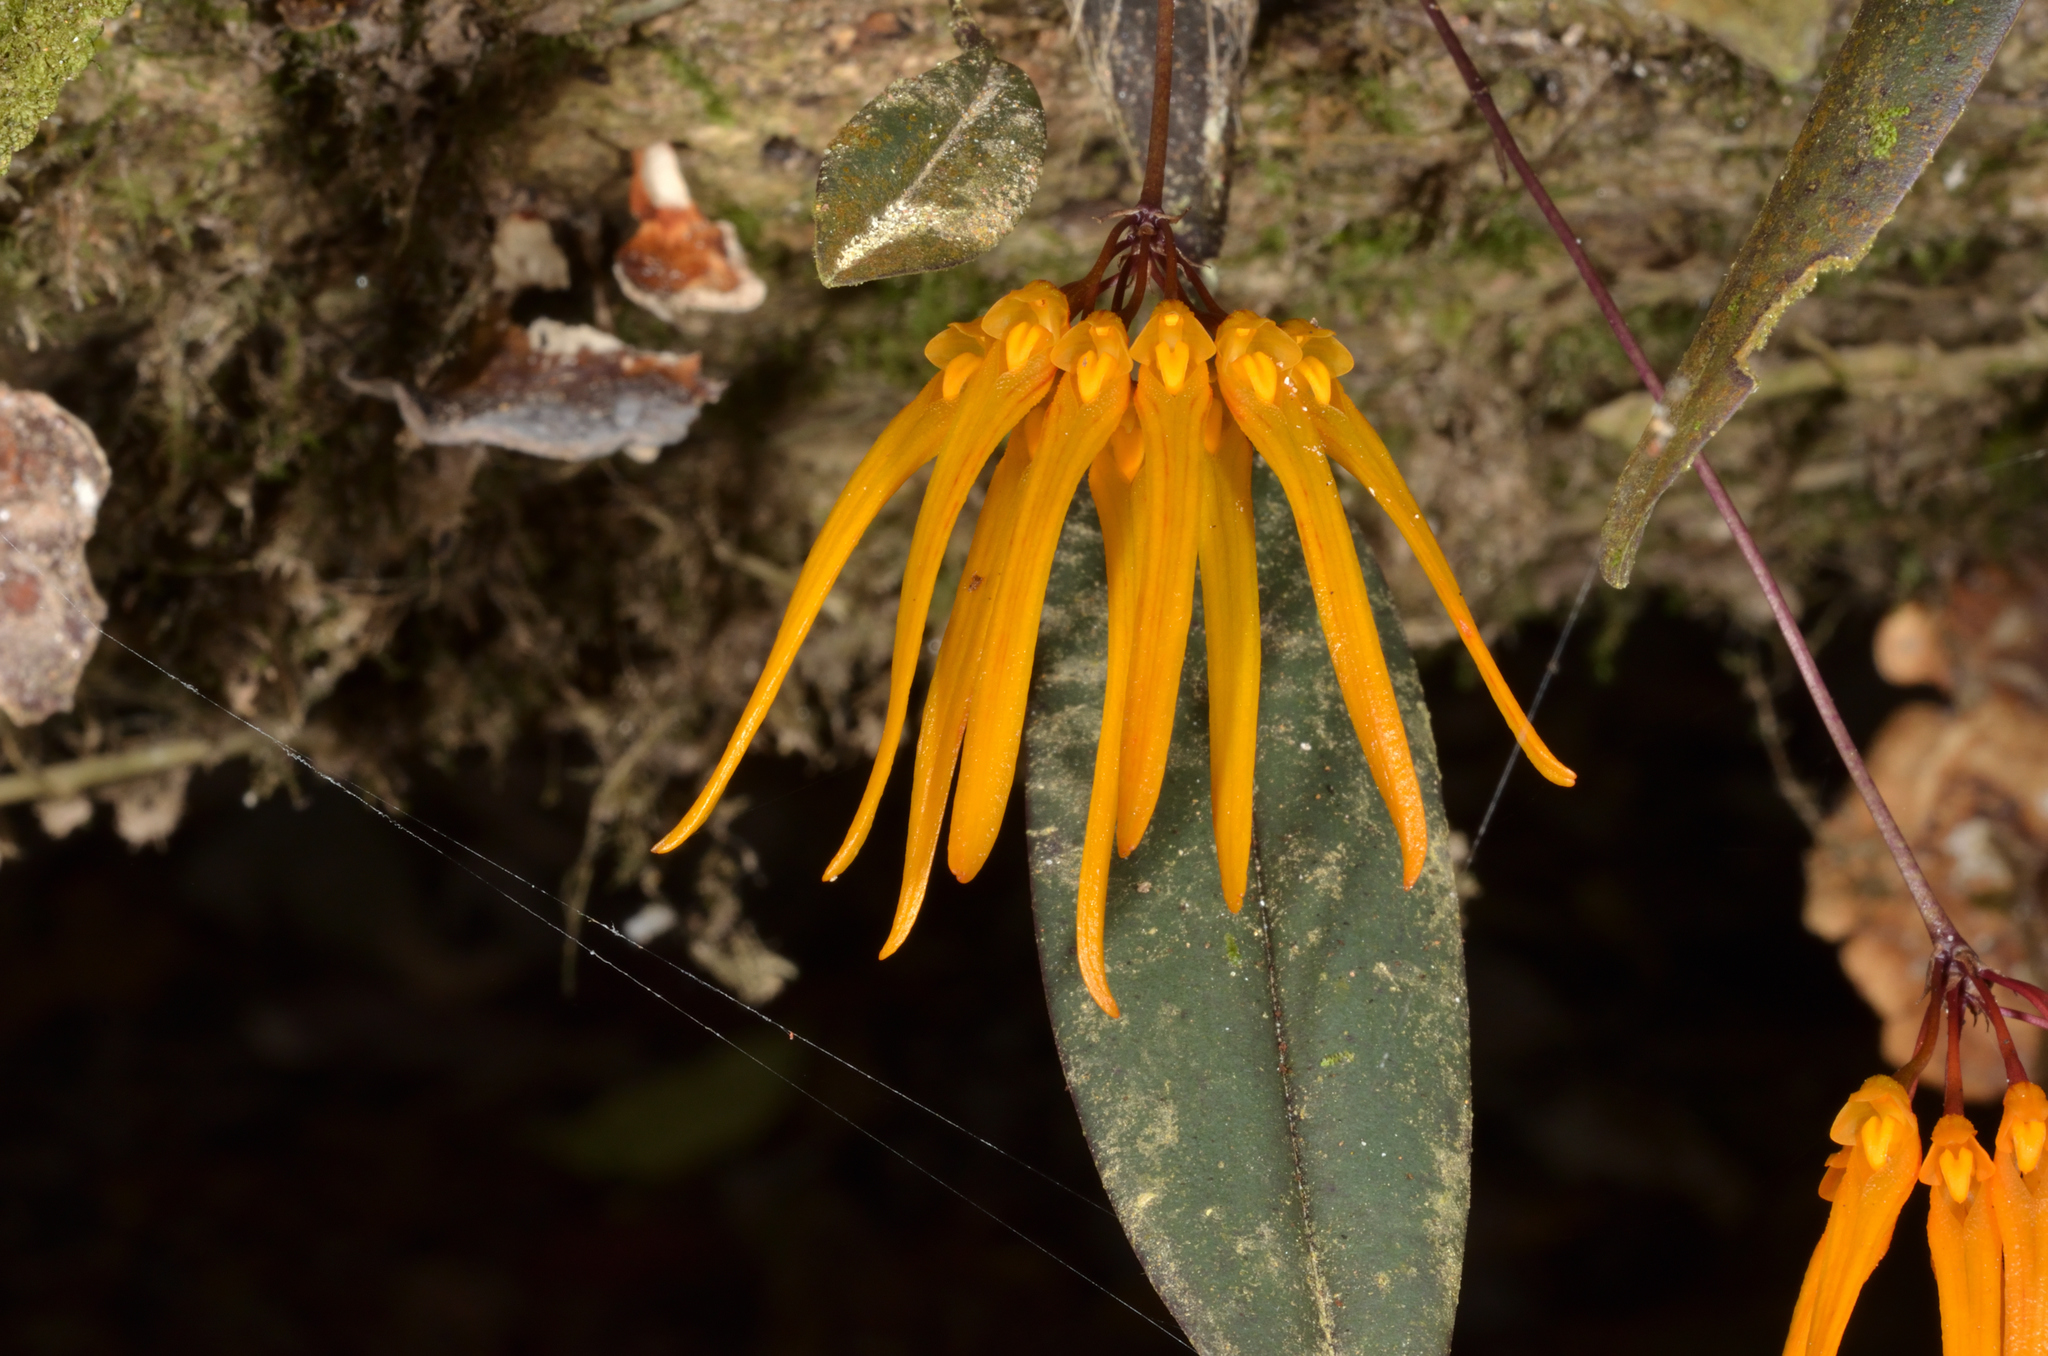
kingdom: Plantae
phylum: Tracheophyta
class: Liliopsida
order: Asparagales
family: Orchidaceae
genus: Bulbophyllum
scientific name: Bulbophyllum thaiorum
